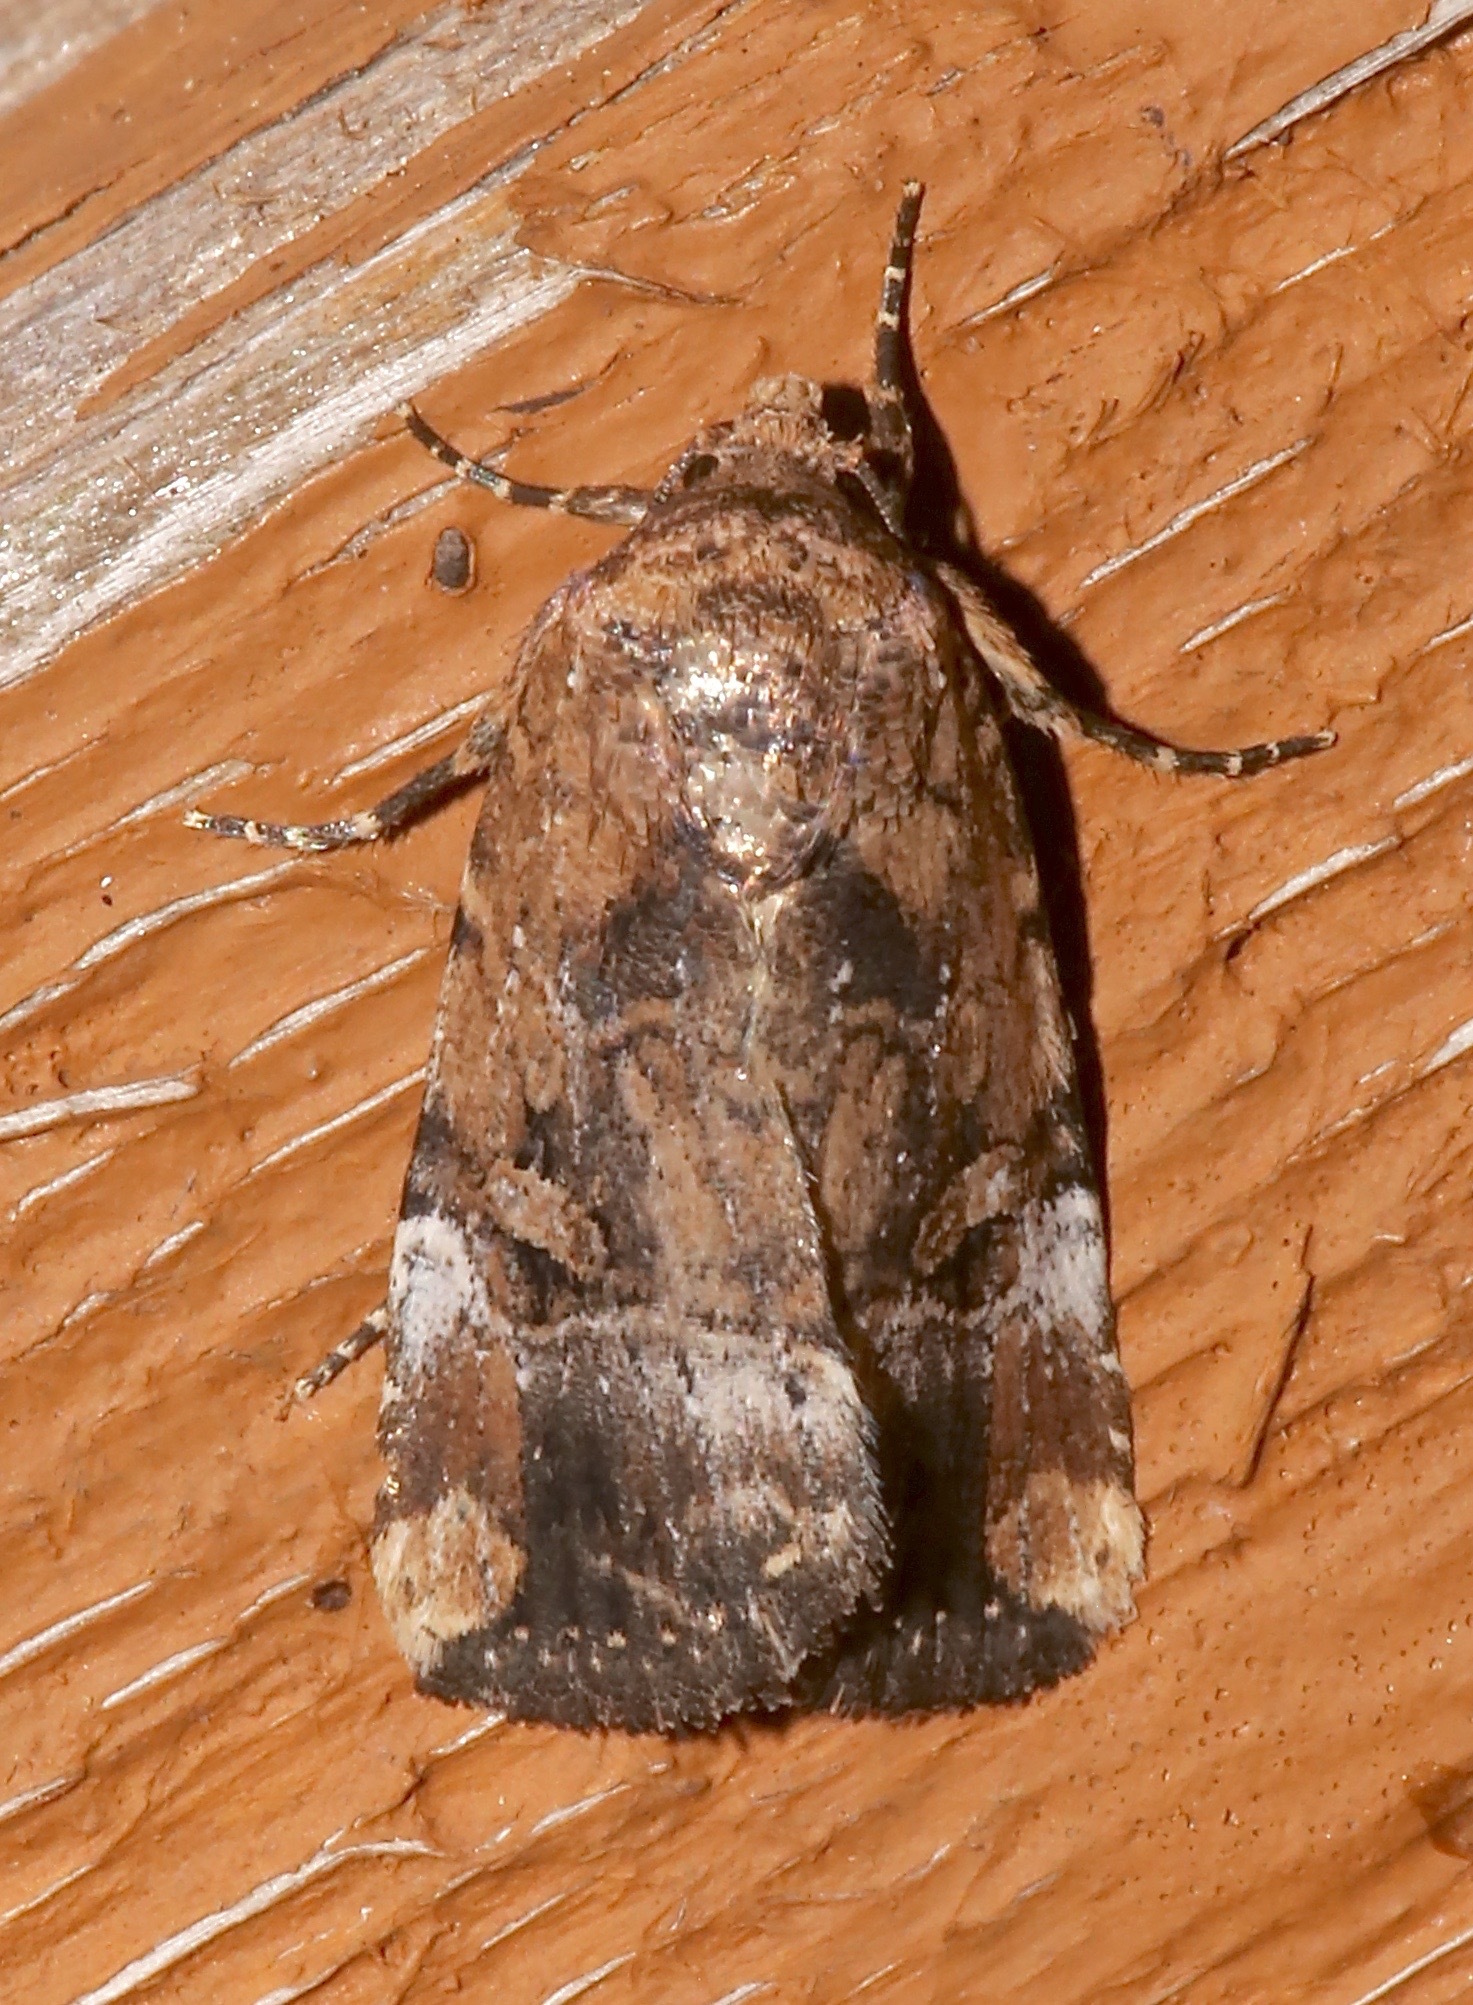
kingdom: Animalia
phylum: Arthropoda
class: Insecta
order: Lepidoptera
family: Noctuidae
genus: Elaphria
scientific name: Elaphria chalcedonia
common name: Chalcedony midget
